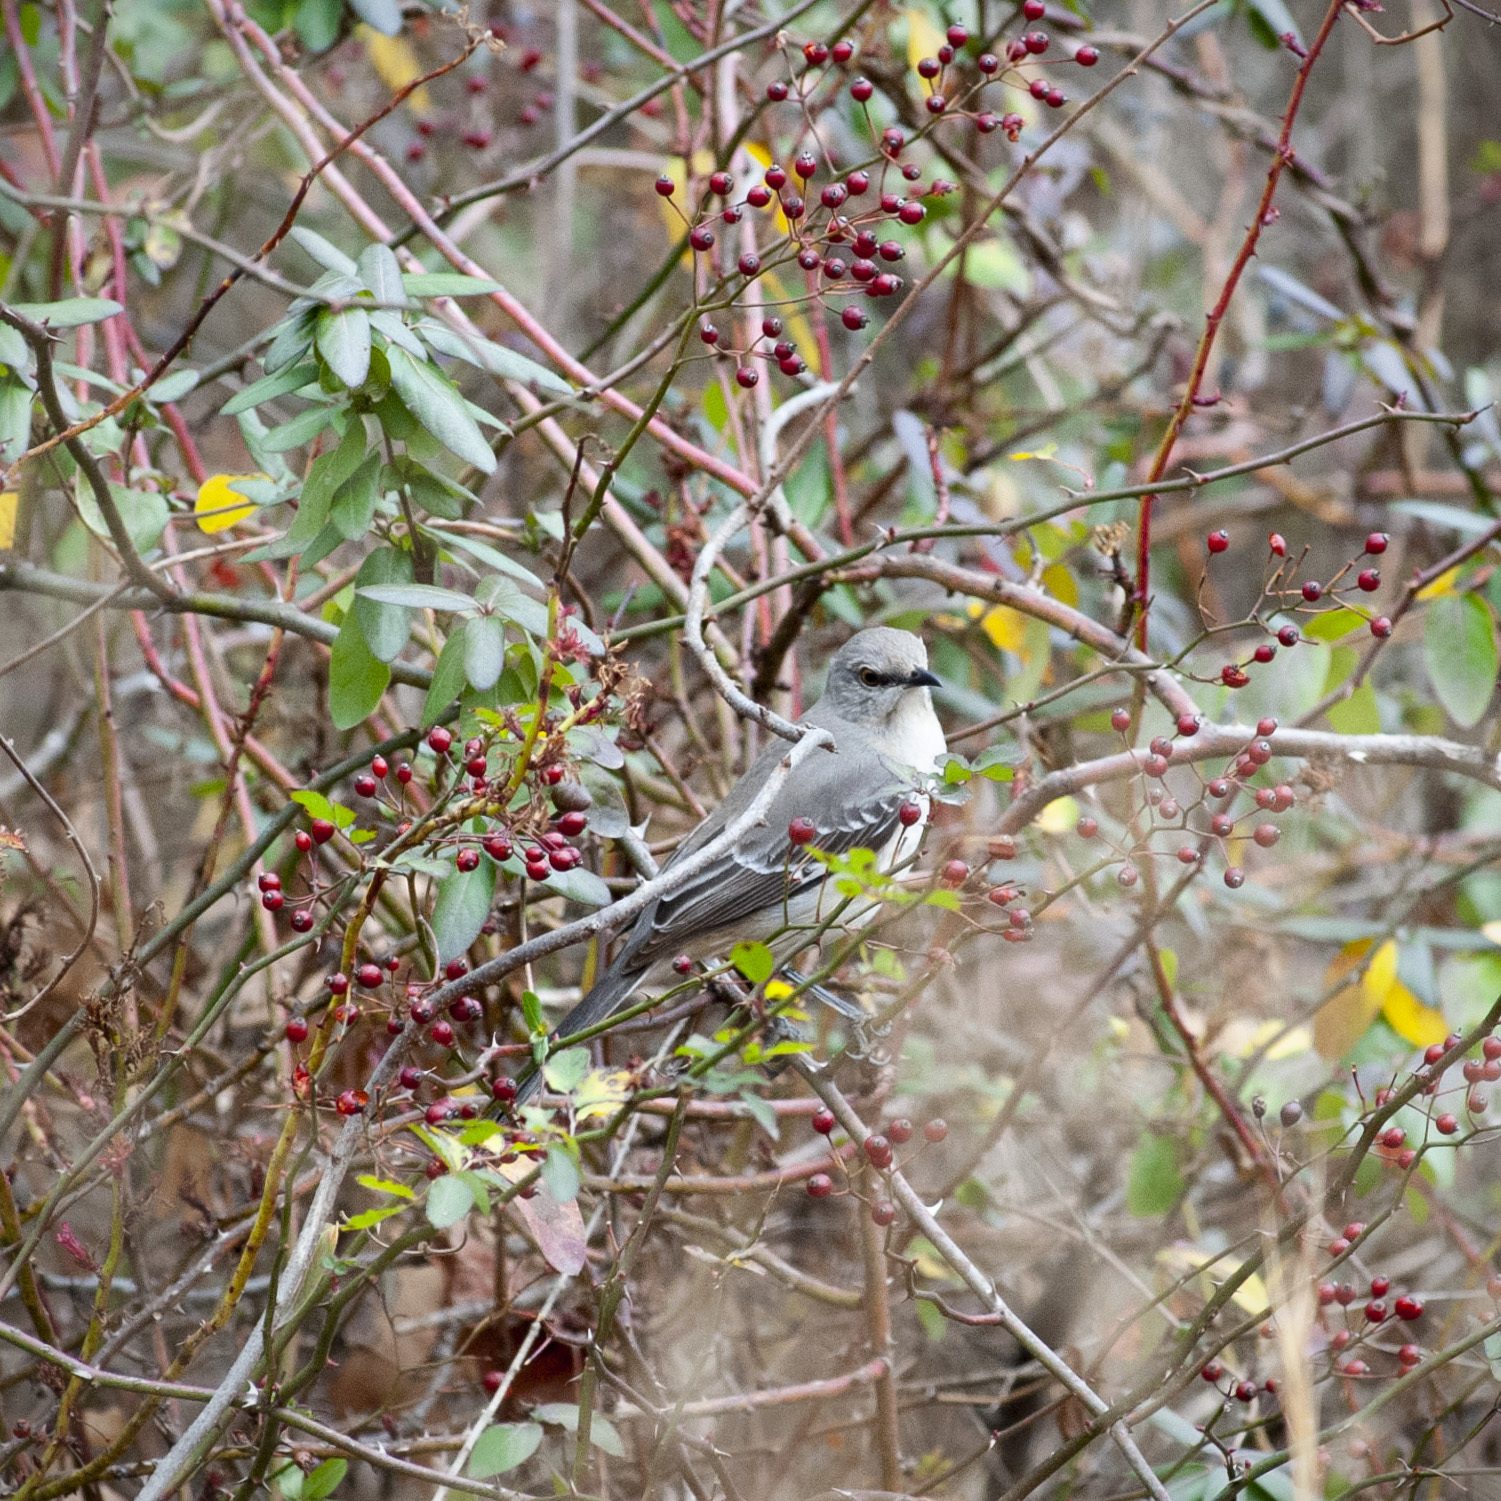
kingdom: Animalia
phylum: Chordata
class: Aves
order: Passeriformes
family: Mimidae
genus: Mimus
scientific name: Mimus polyglottos
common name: Northern mockingbird
